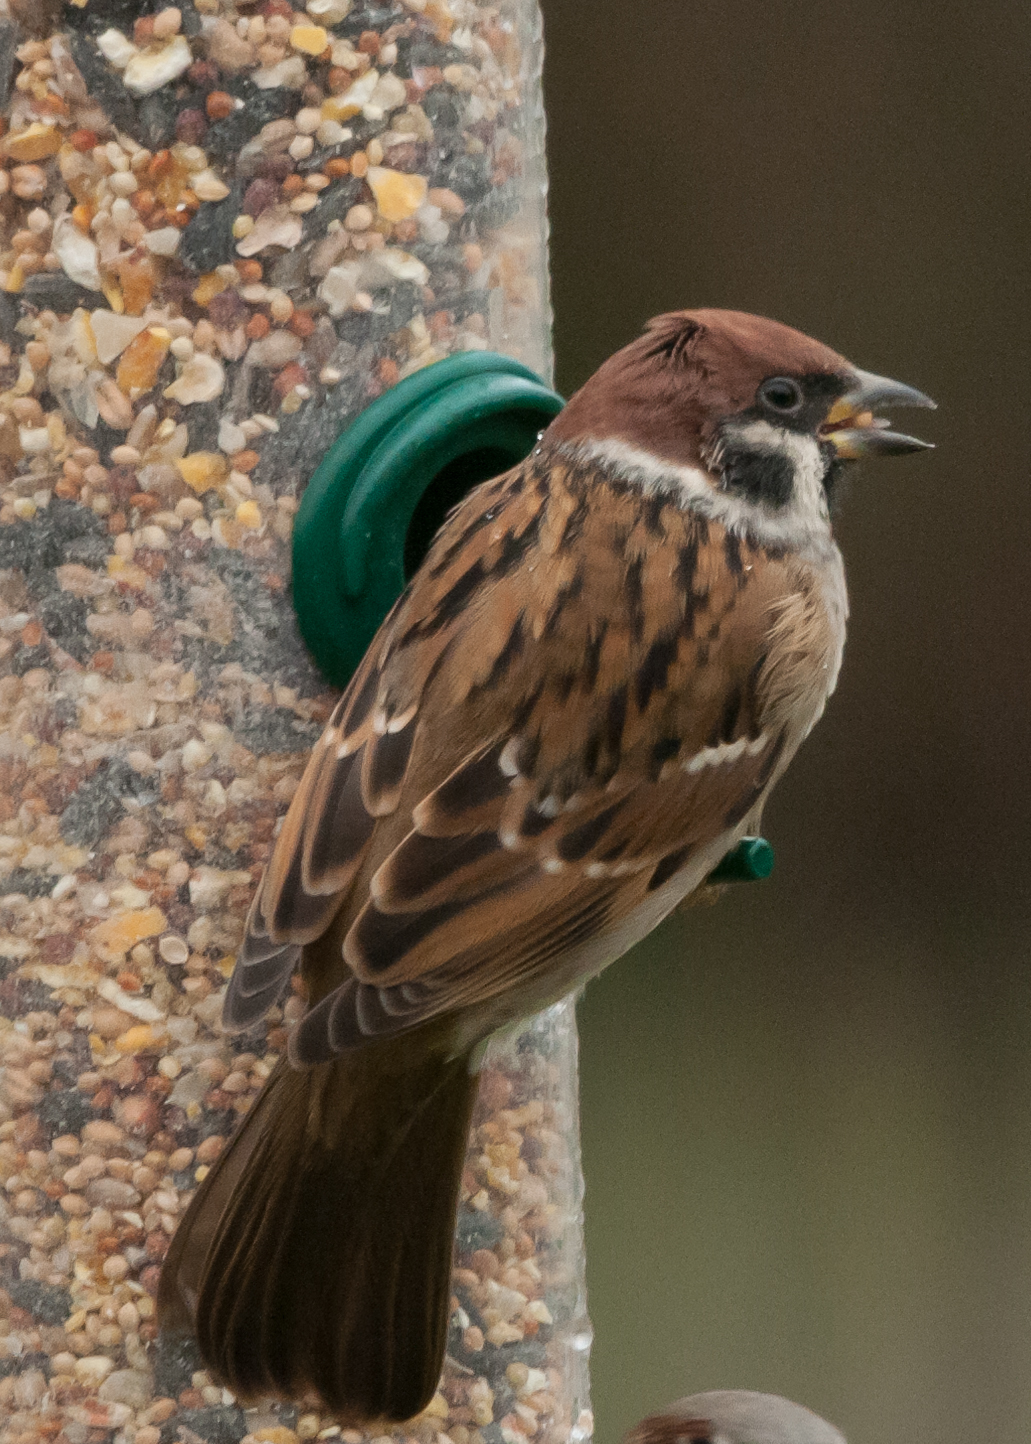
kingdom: Animalia
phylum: Chordata
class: Aves
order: Passeriformes
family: Passeridae
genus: Passer
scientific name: Passer montanus
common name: Eurasian tree sparrow
